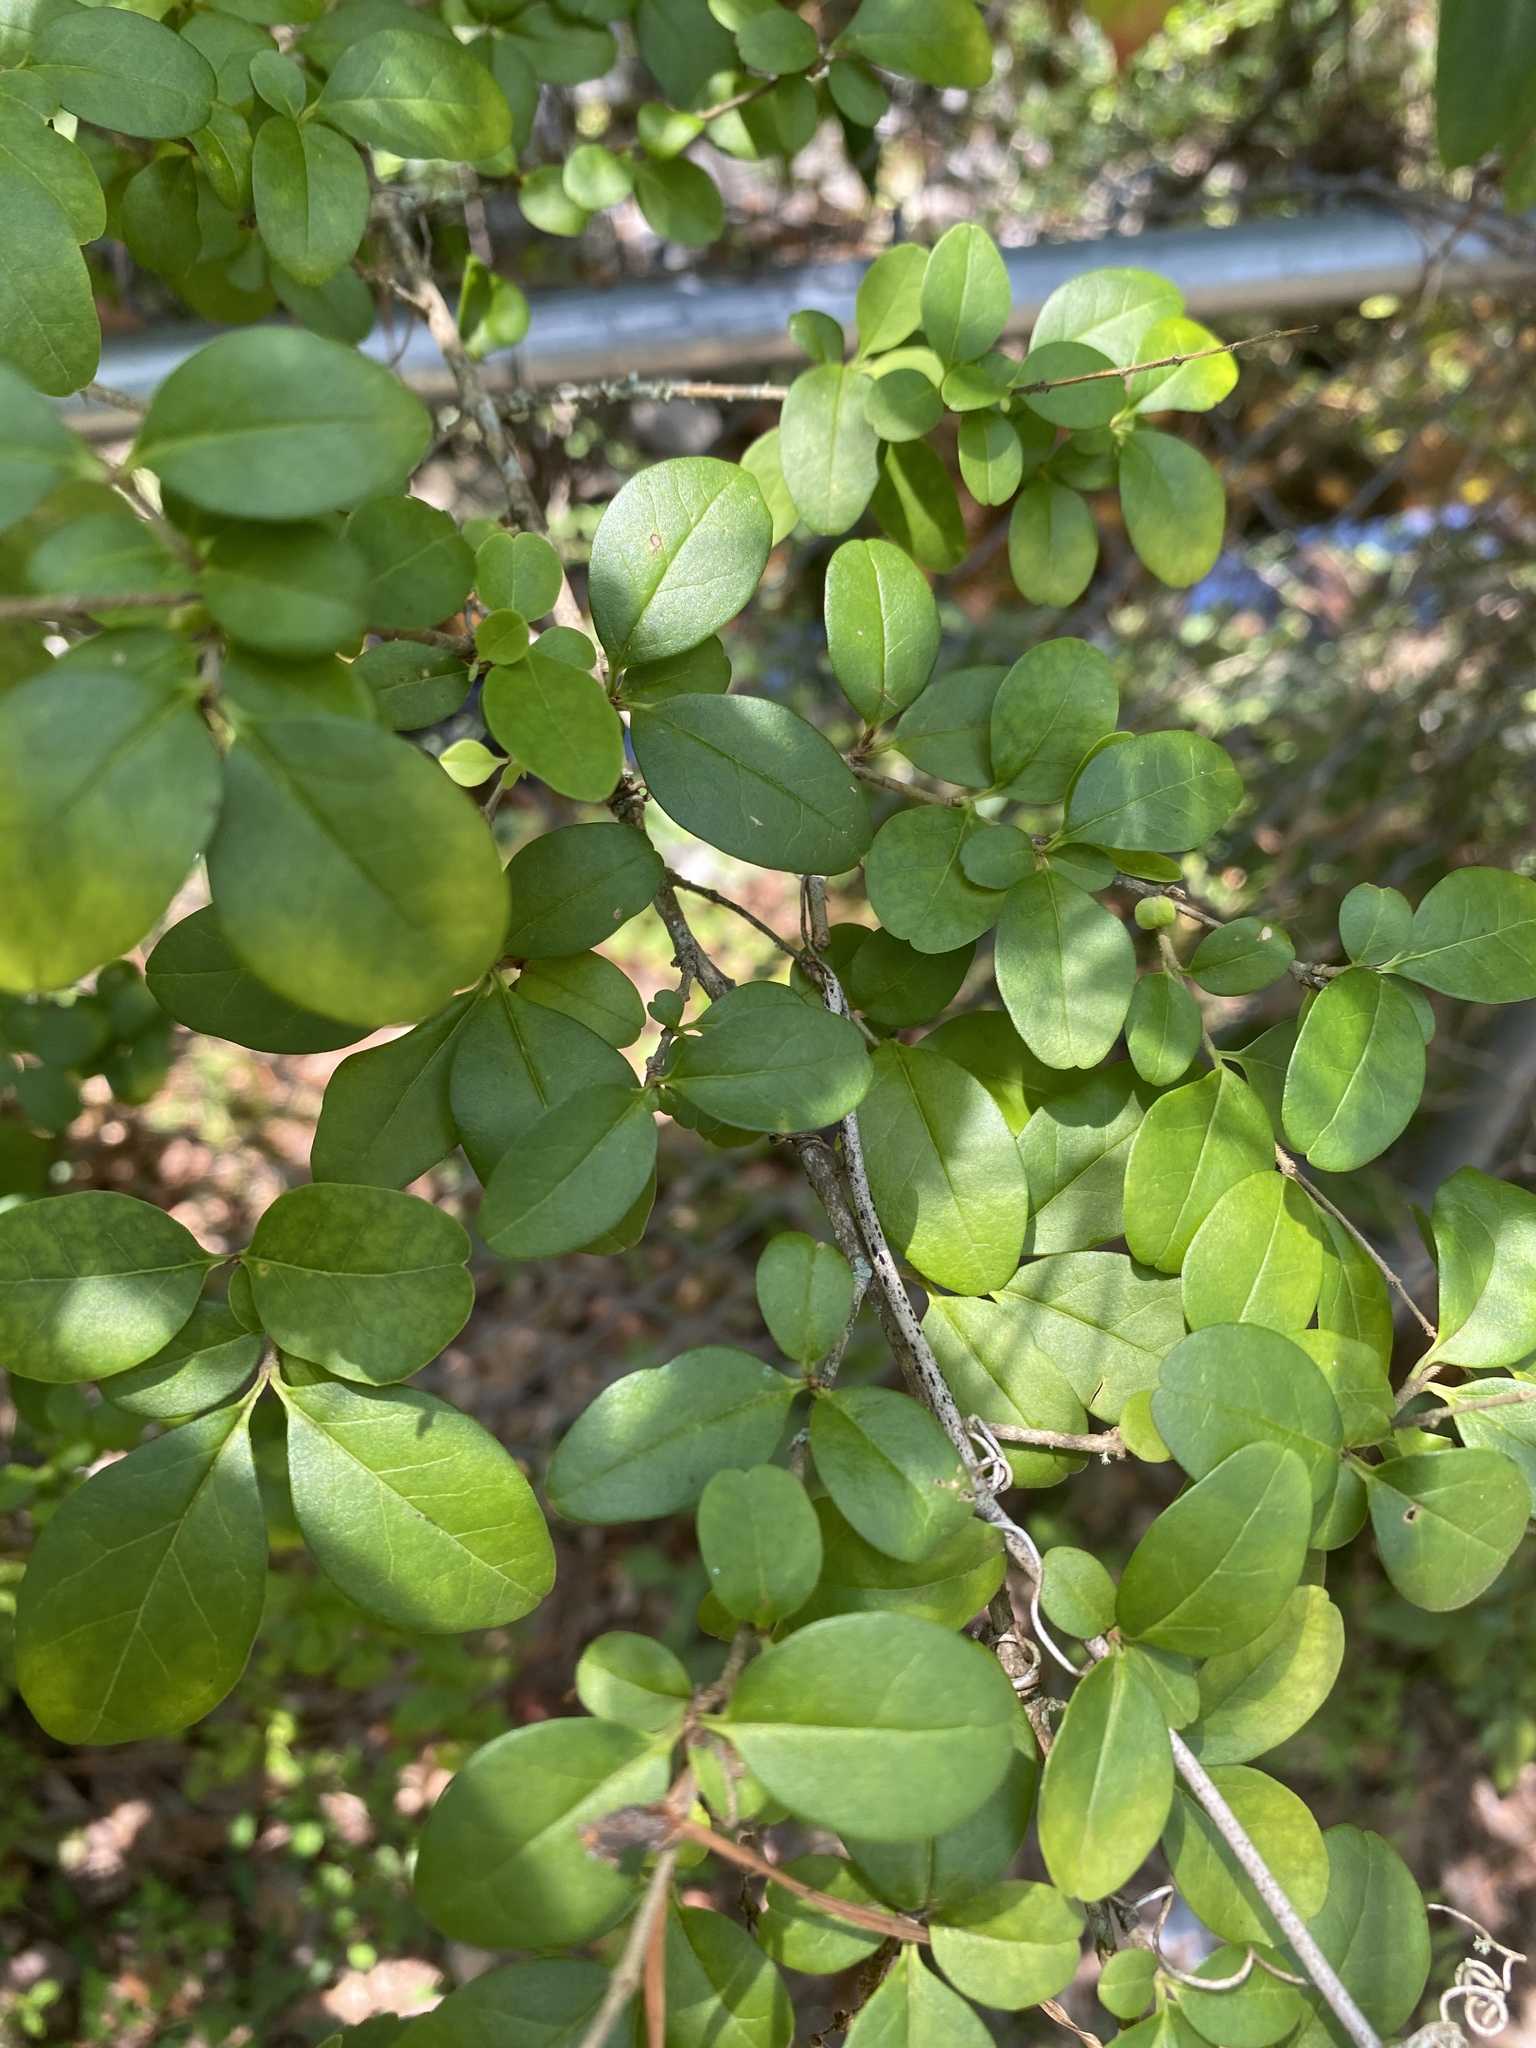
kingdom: Plantae
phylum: Tracheophyta
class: Magnoliopsida
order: Lamiales
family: Oleaceae
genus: Ligustrum
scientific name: Ligustrum sinense
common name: Chinese privet
